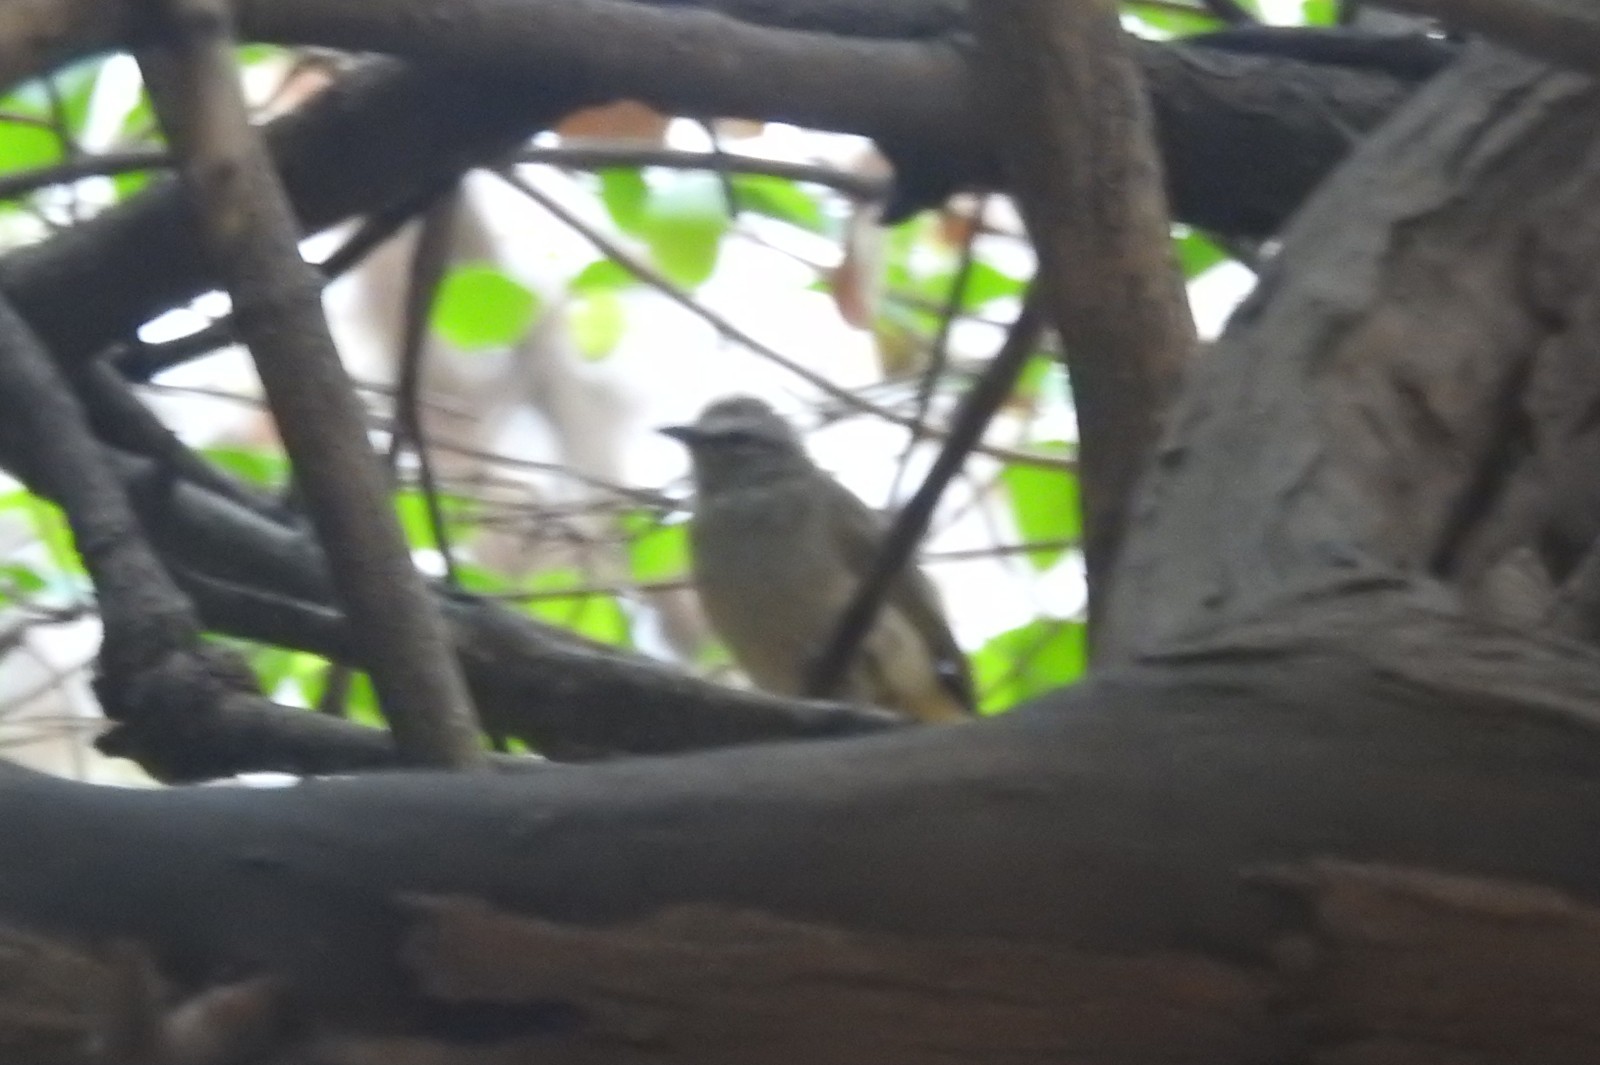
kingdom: Animalia
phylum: Chordata
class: Aves
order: Passeriformes
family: Pycnonotidae
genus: Pycnonotus
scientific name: Pycnonotus luteolus
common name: White-browed bulbul
